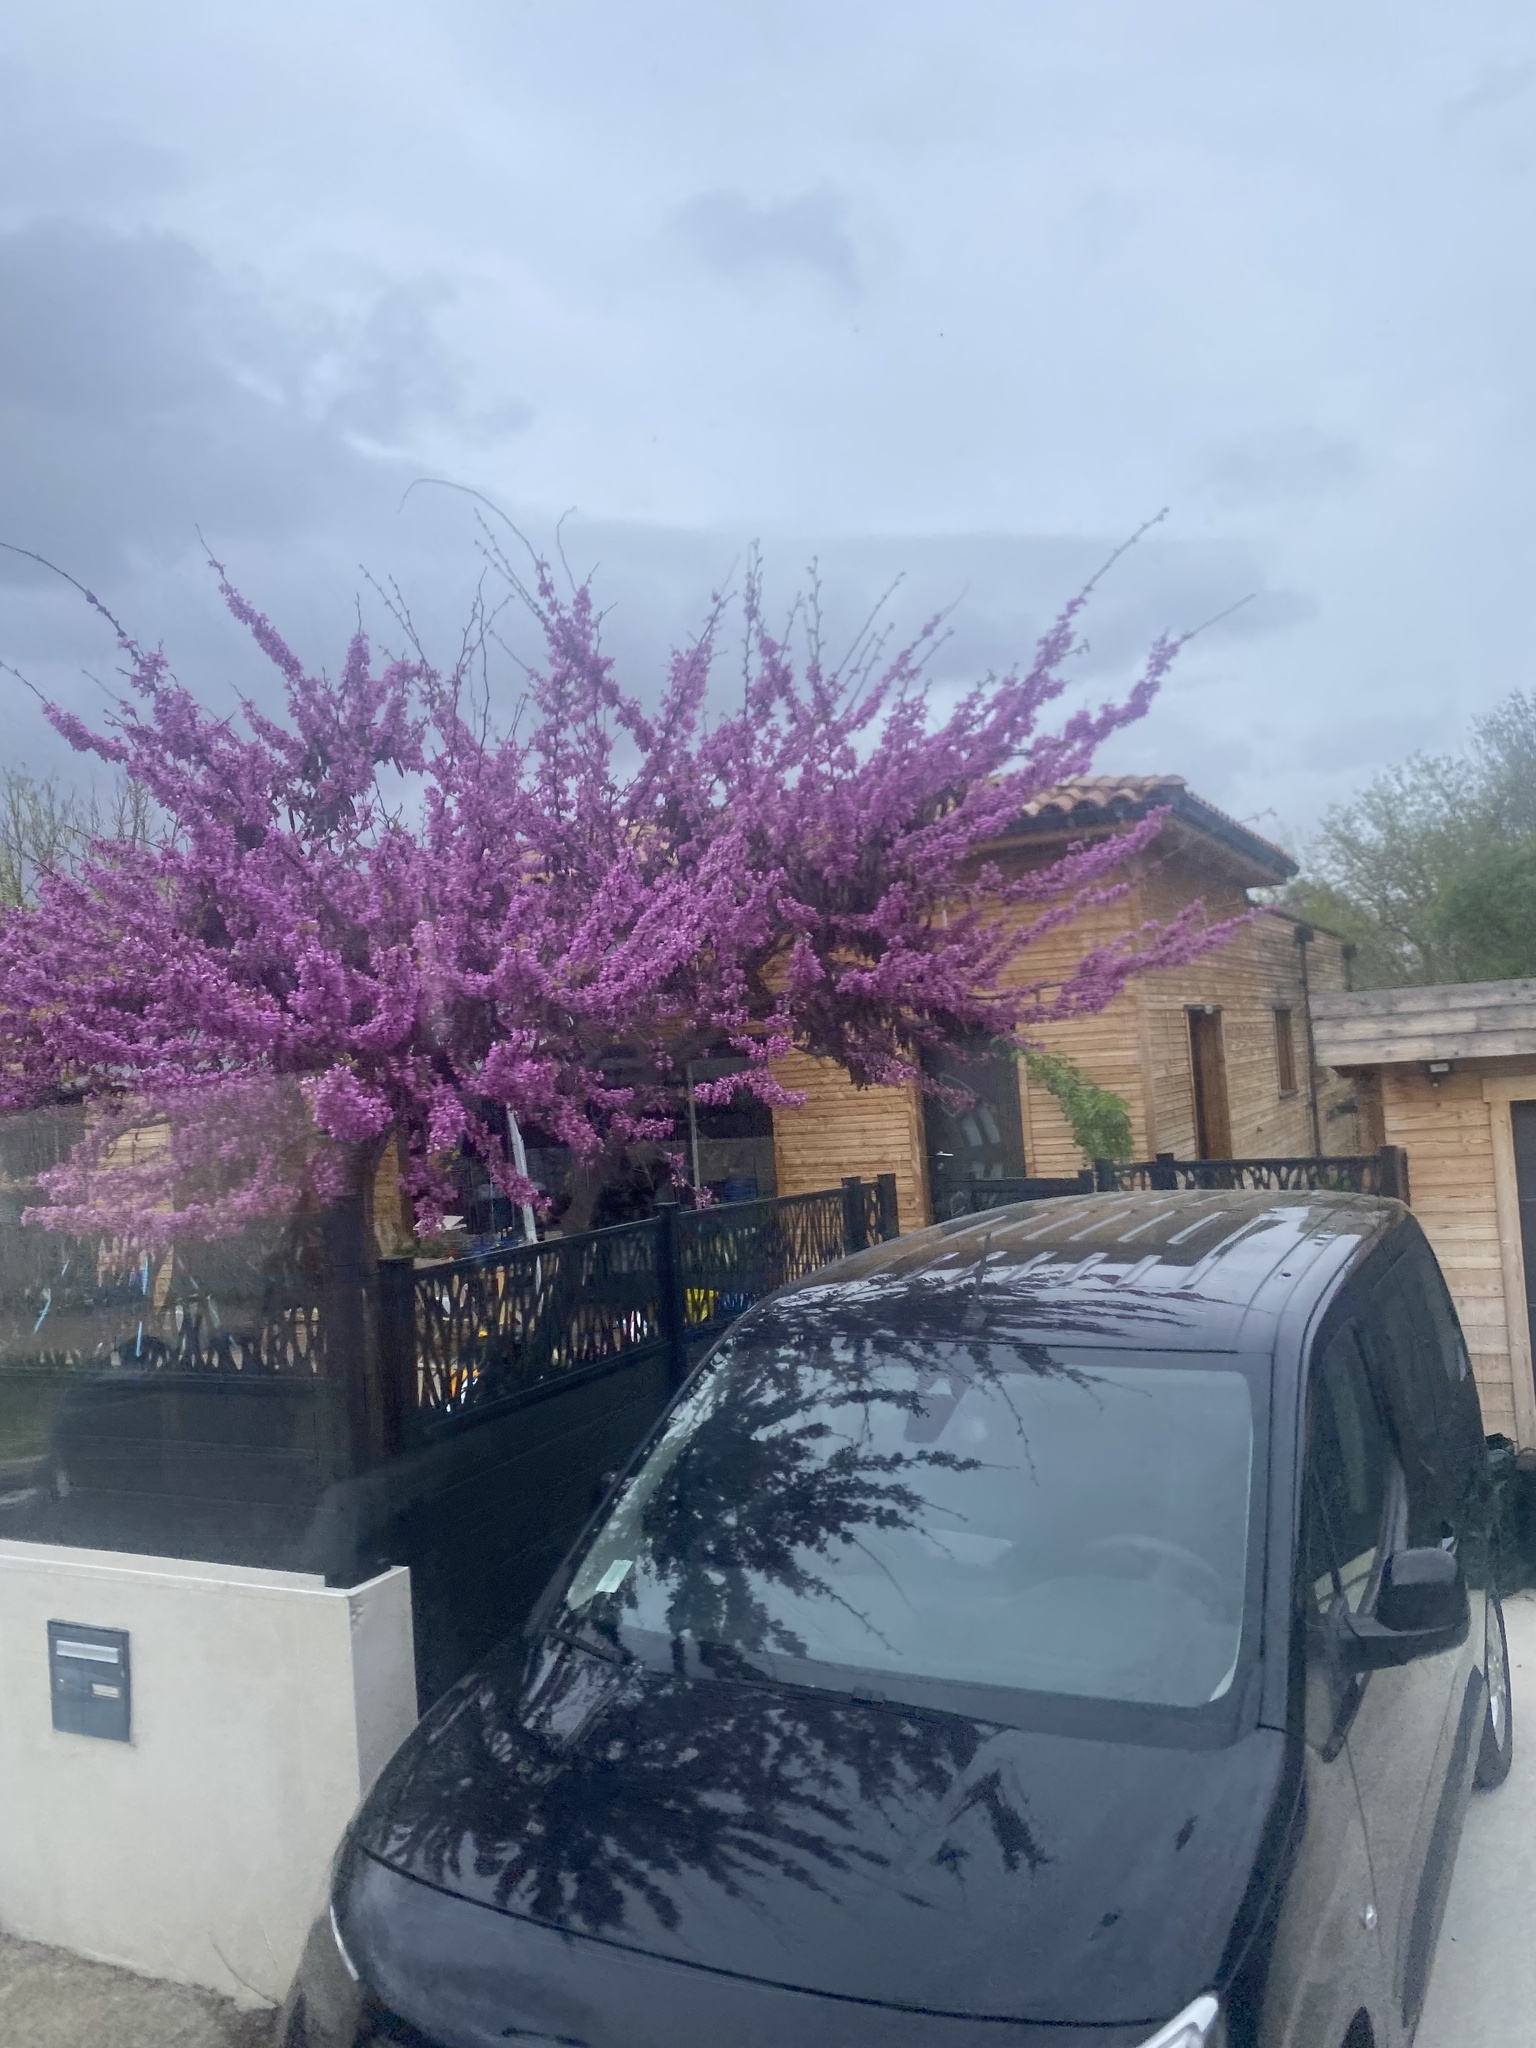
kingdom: Plantae
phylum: Tracheophyta
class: Magnoliopsida
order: Fabales
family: Fabaceae
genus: Cercis
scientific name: Cercis siliquastrum
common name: Judas tree
